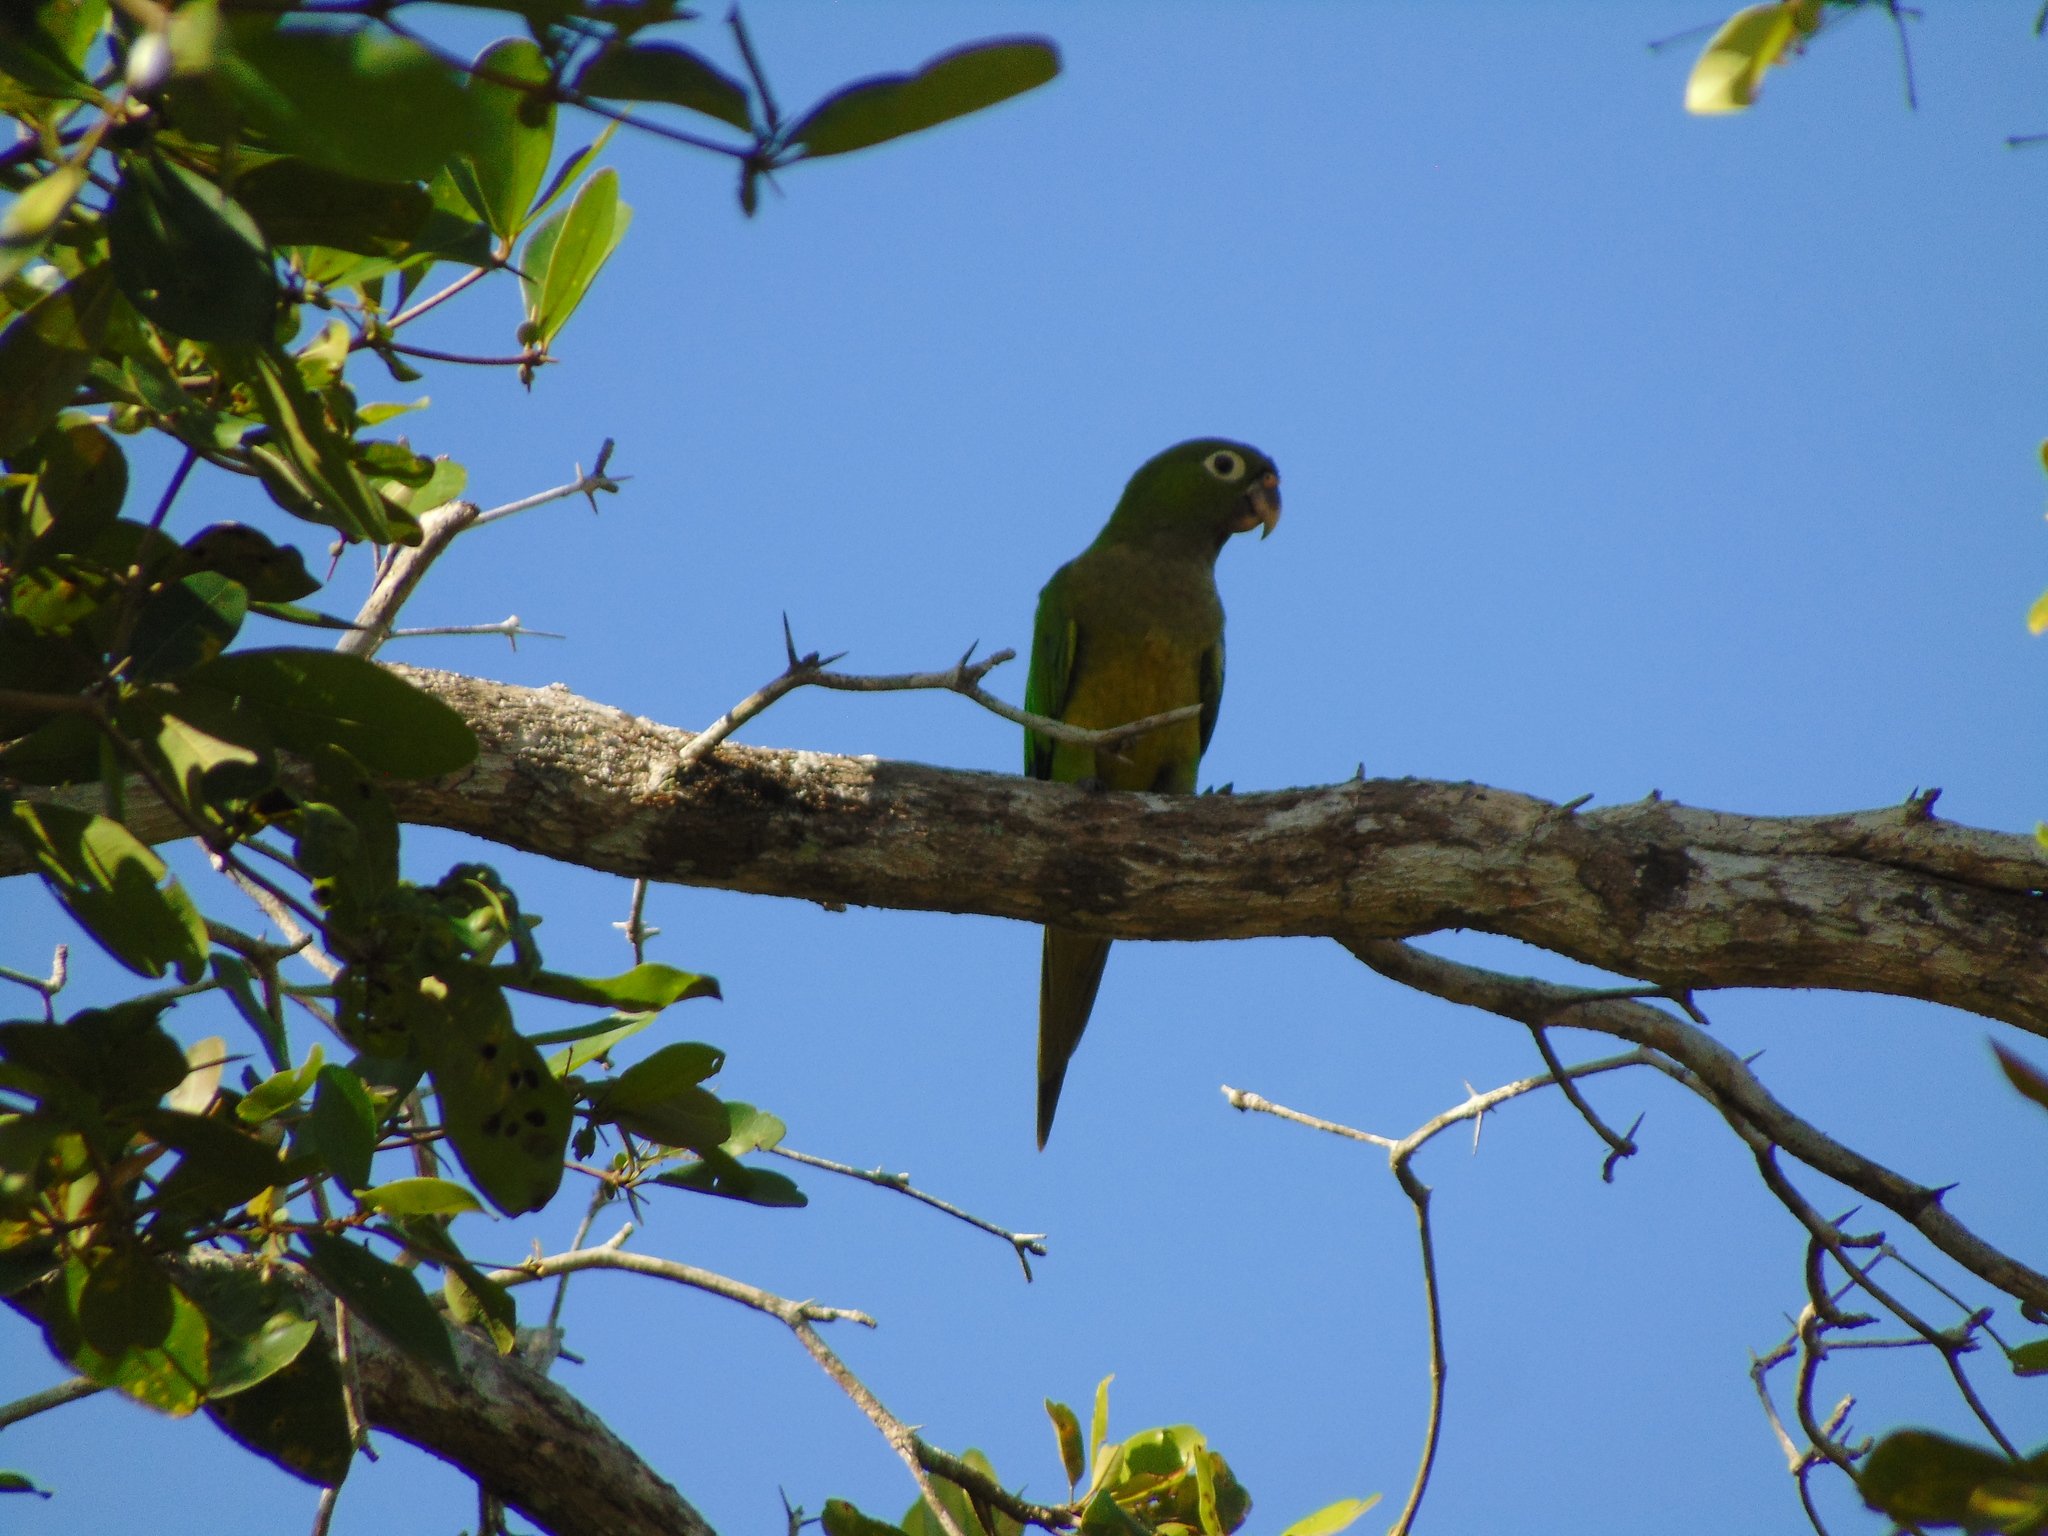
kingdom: Animalia
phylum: Chordata
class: Aves
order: Psittaciformes
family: Psittacidae
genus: Aratinga
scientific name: Aratinga nana
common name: Olive-throated parakeet
